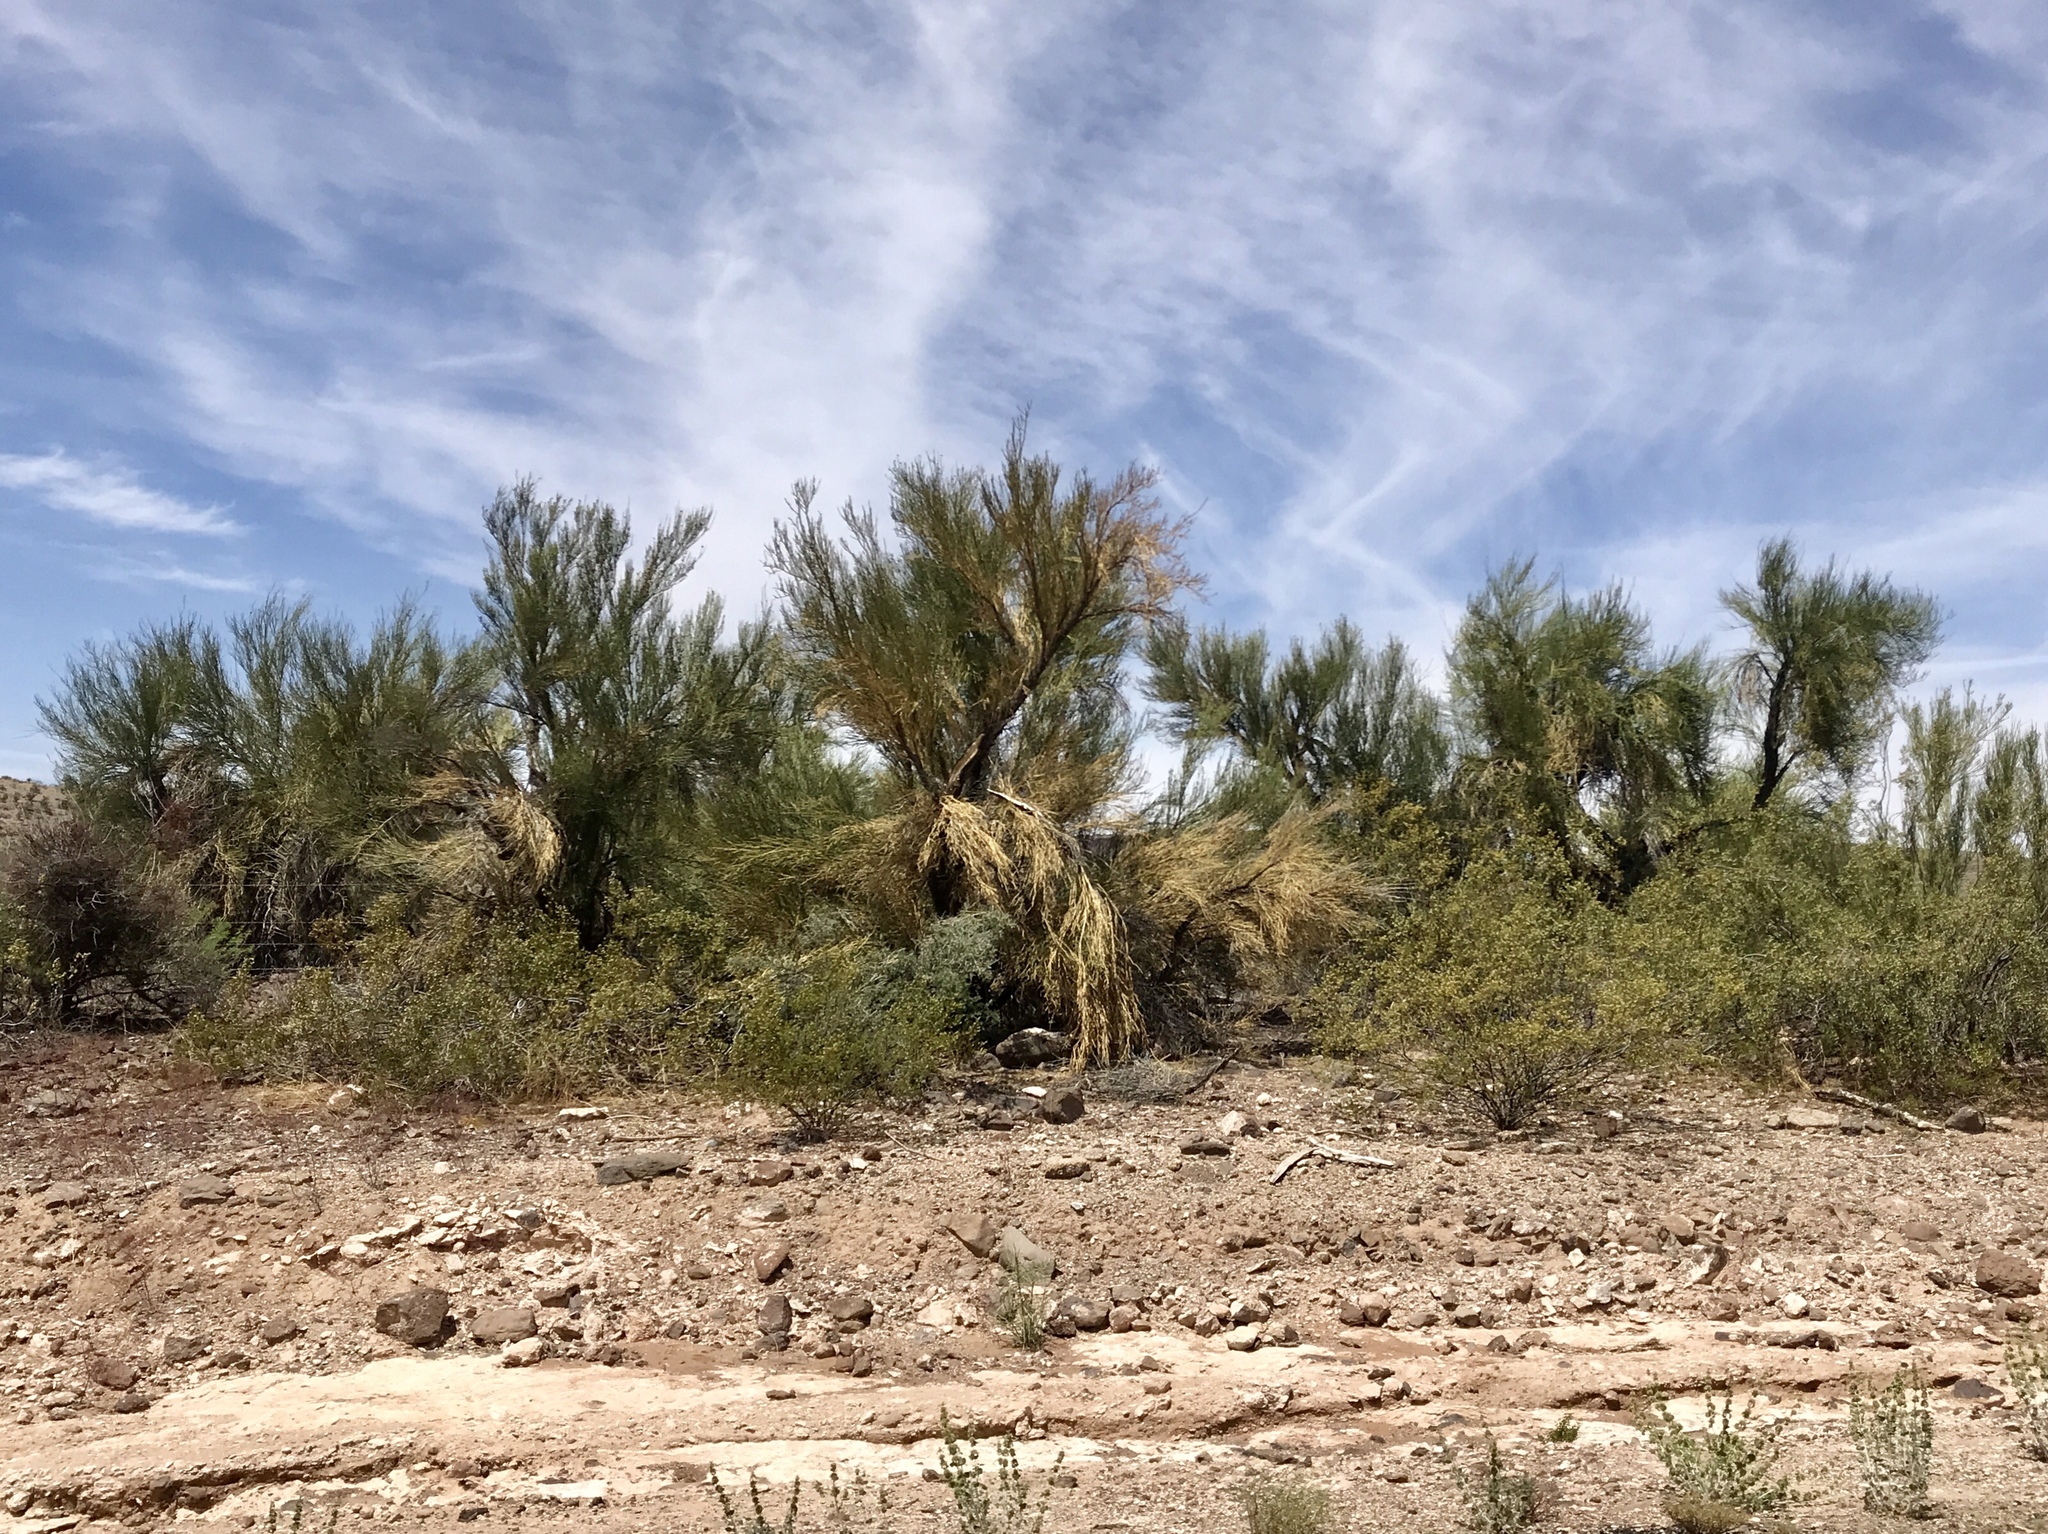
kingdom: Plantae
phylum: Tracheophyta
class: Magnoliopsida
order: Celastrales
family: Celastraceae
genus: Canotia
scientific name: Canotia holacantha
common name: Crucifixion thorns
